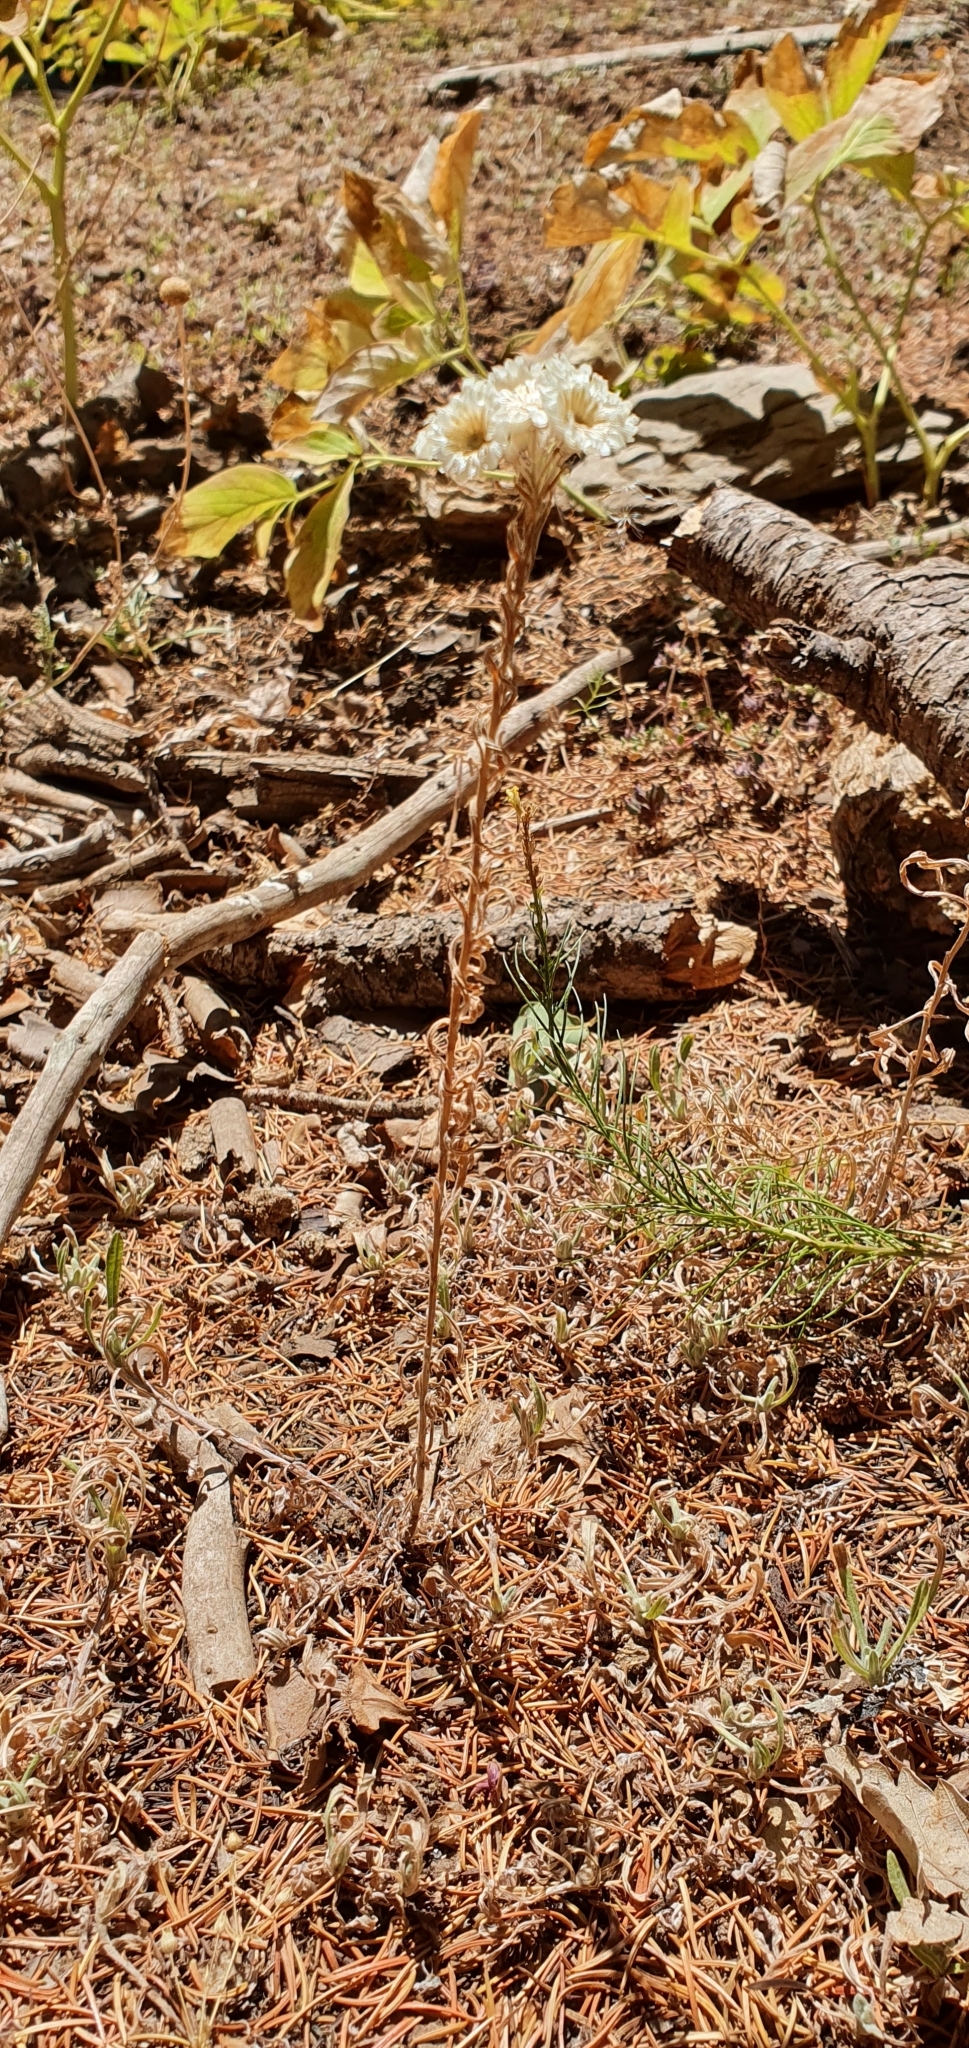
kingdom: Plantae
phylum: Tracheophyta
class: Magnoliopsida
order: Asterales
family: Asteraceae
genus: Helichrysum
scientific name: Helichrysum lacteum
